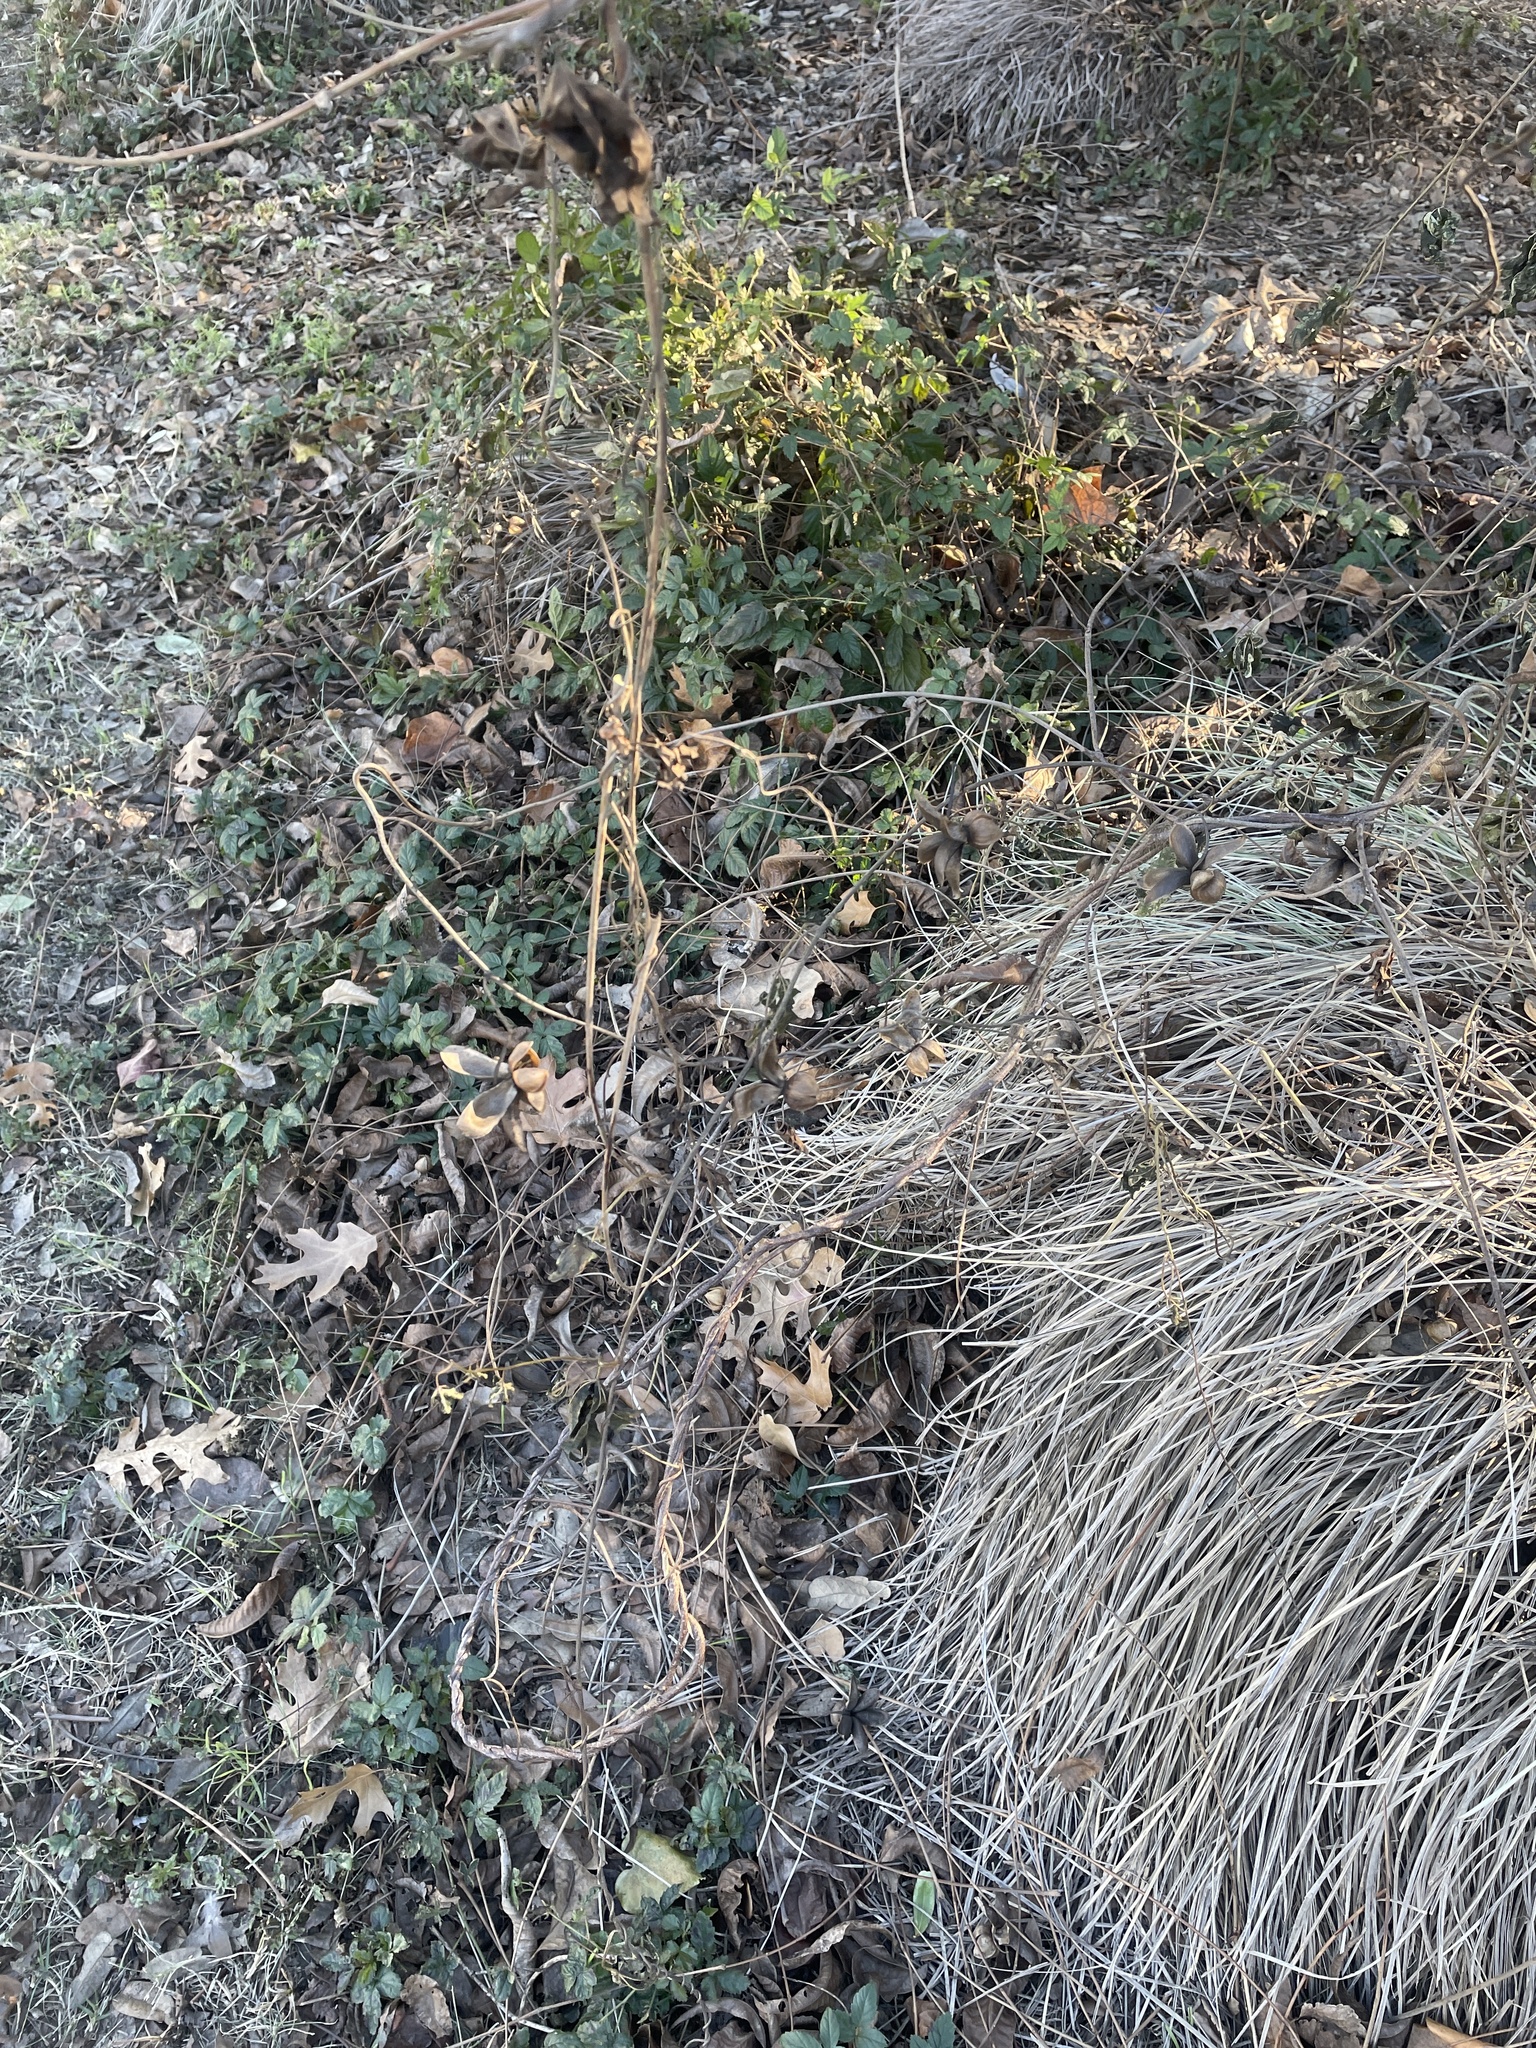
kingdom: Plantae
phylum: Tracheophyta
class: Magnoliopsida
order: Solanales
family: Convolvulaceae
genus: Distimake
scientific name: Distimake dissectus
